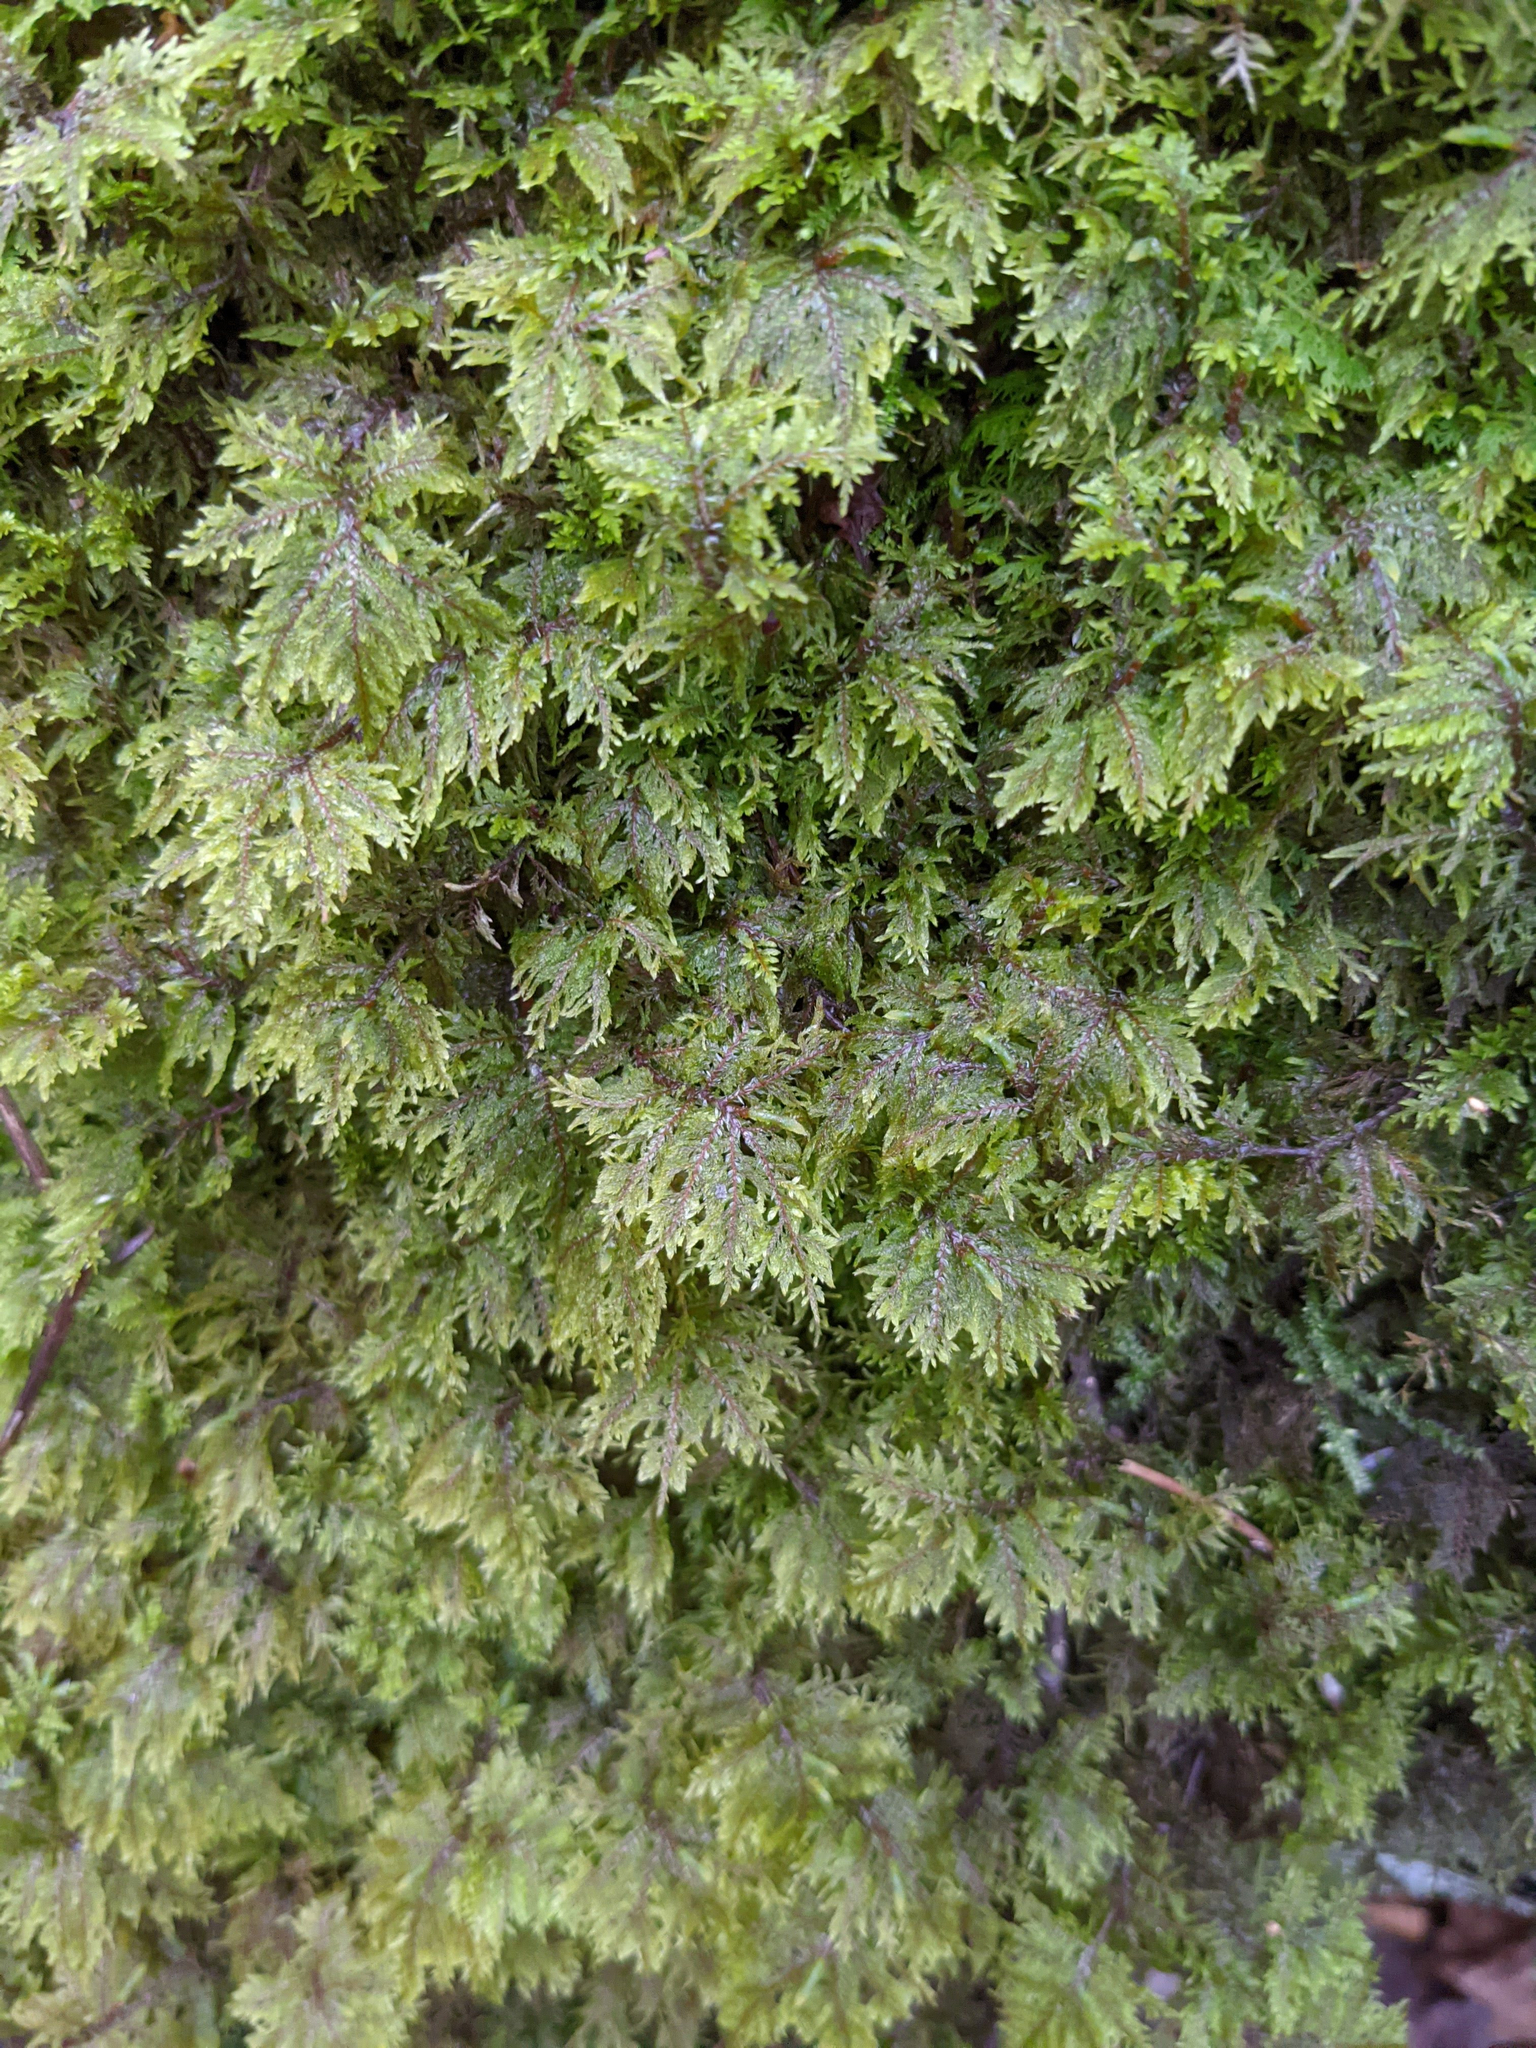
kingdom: Plantae
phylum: Bryophyta
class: Bryopsida
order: Hypnales
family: Hylocomiaceae
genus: Hylocomium
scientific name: Hylocomium splendens
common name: Stairstep moss
